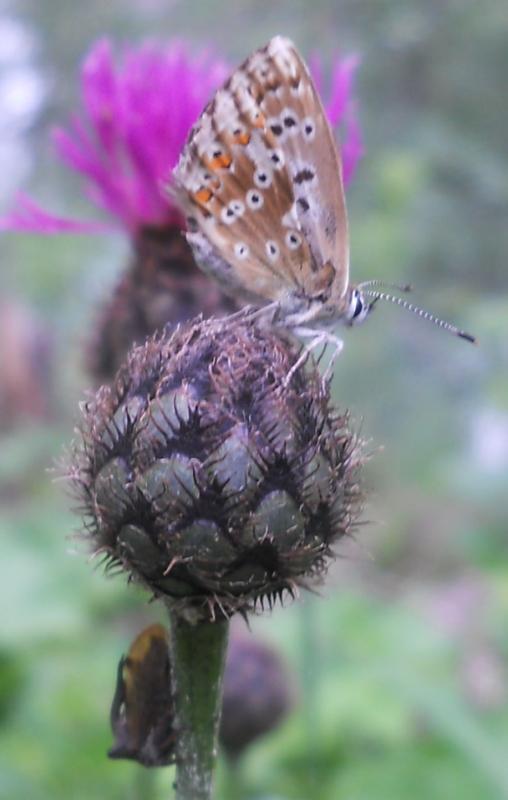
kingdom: Animalia
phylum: Arthropoda
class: Insecta
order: Lepidoptera
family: Lycaenidae
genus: Lysandra
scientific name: Lysandra coridon
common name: Chalkhill blue
